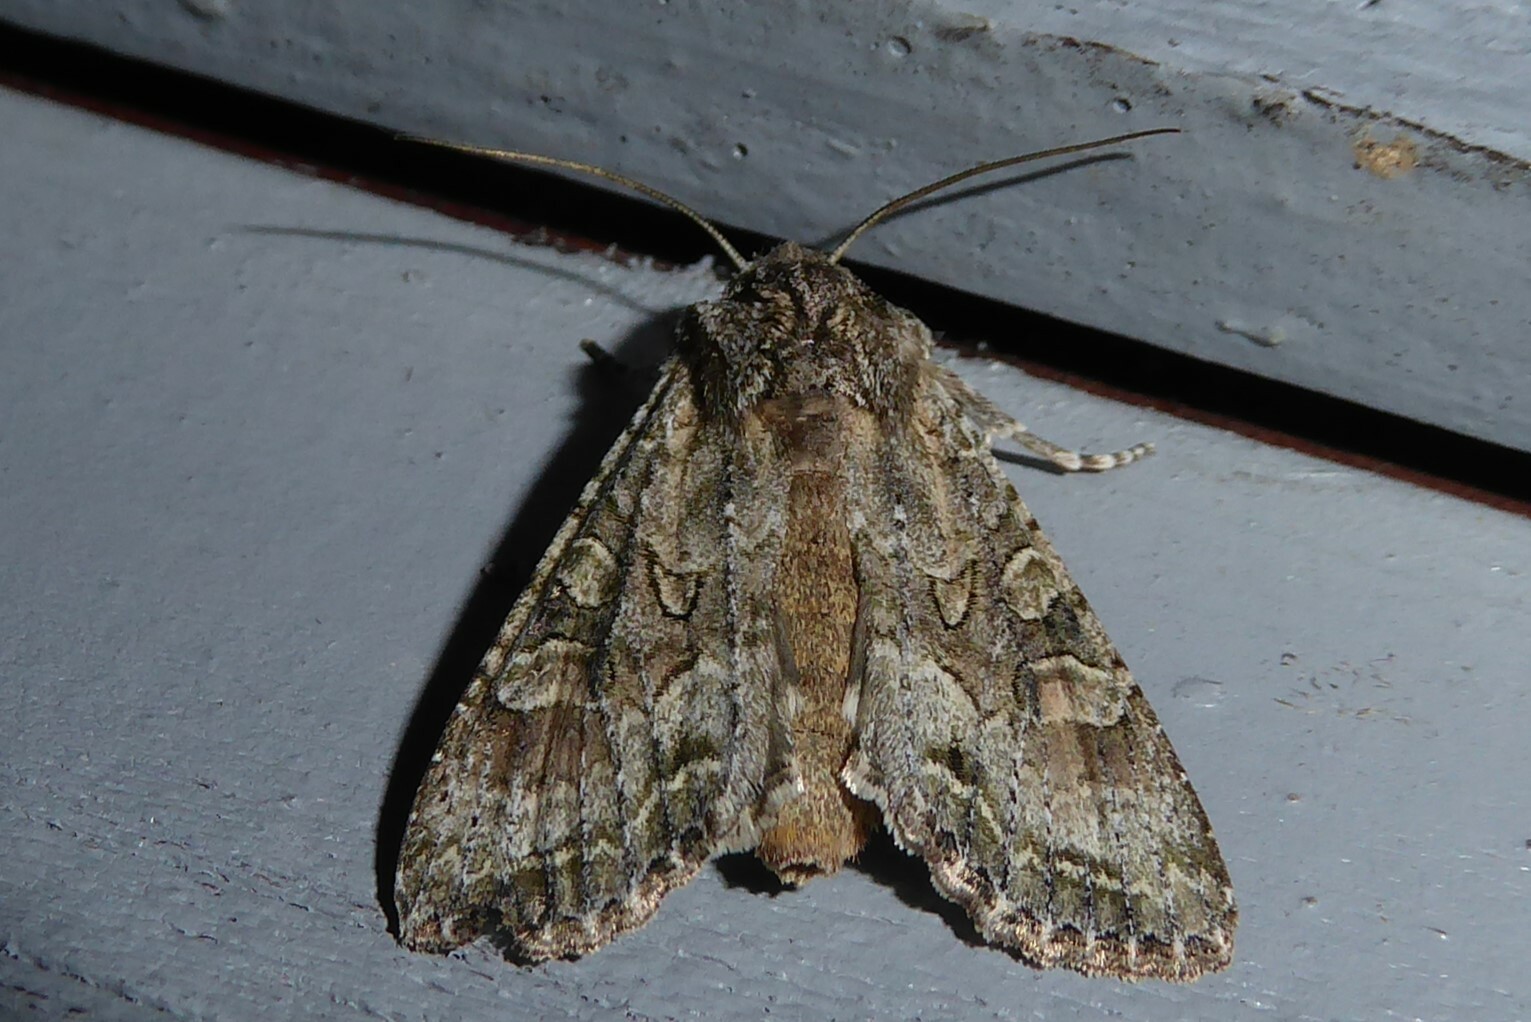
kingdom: Animalia
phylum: Arthropoda
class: Insecta
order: Lepidoptera
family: Noctuidae
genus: Ichneutica
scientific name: Ichneutica mutans
